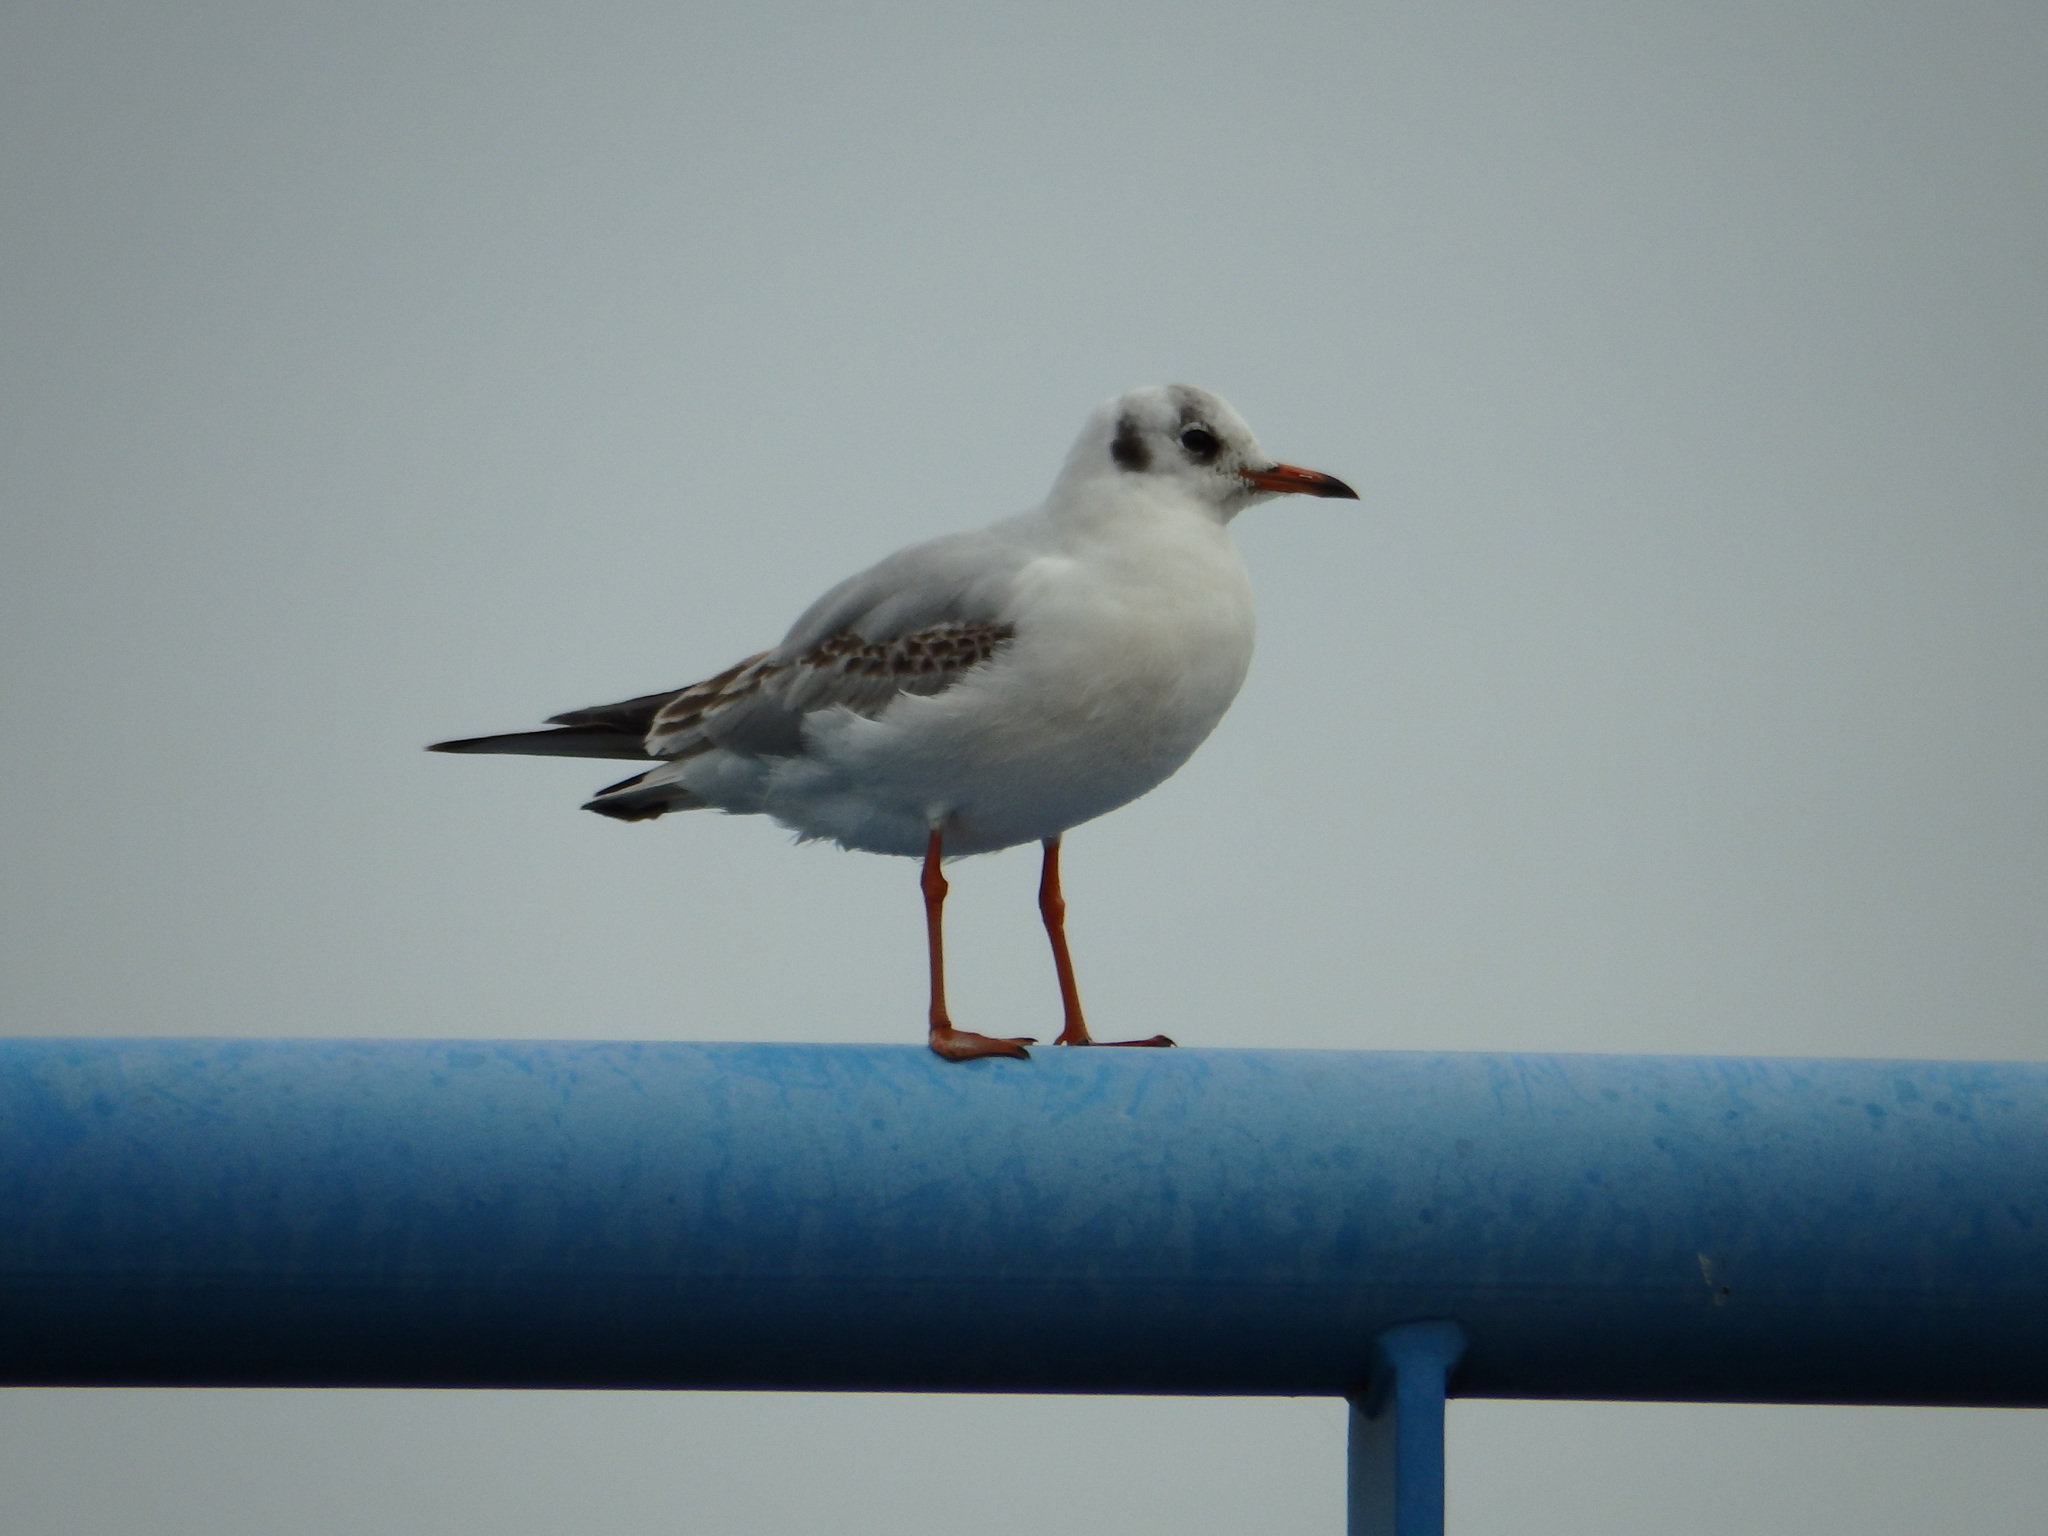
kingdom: Animalia
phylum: Chordata
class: Aves
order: Charadriiformes
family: Laridae
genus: Chroicocephalus
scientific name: Chroicocephalus ridibundus
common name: Black-headed gull
